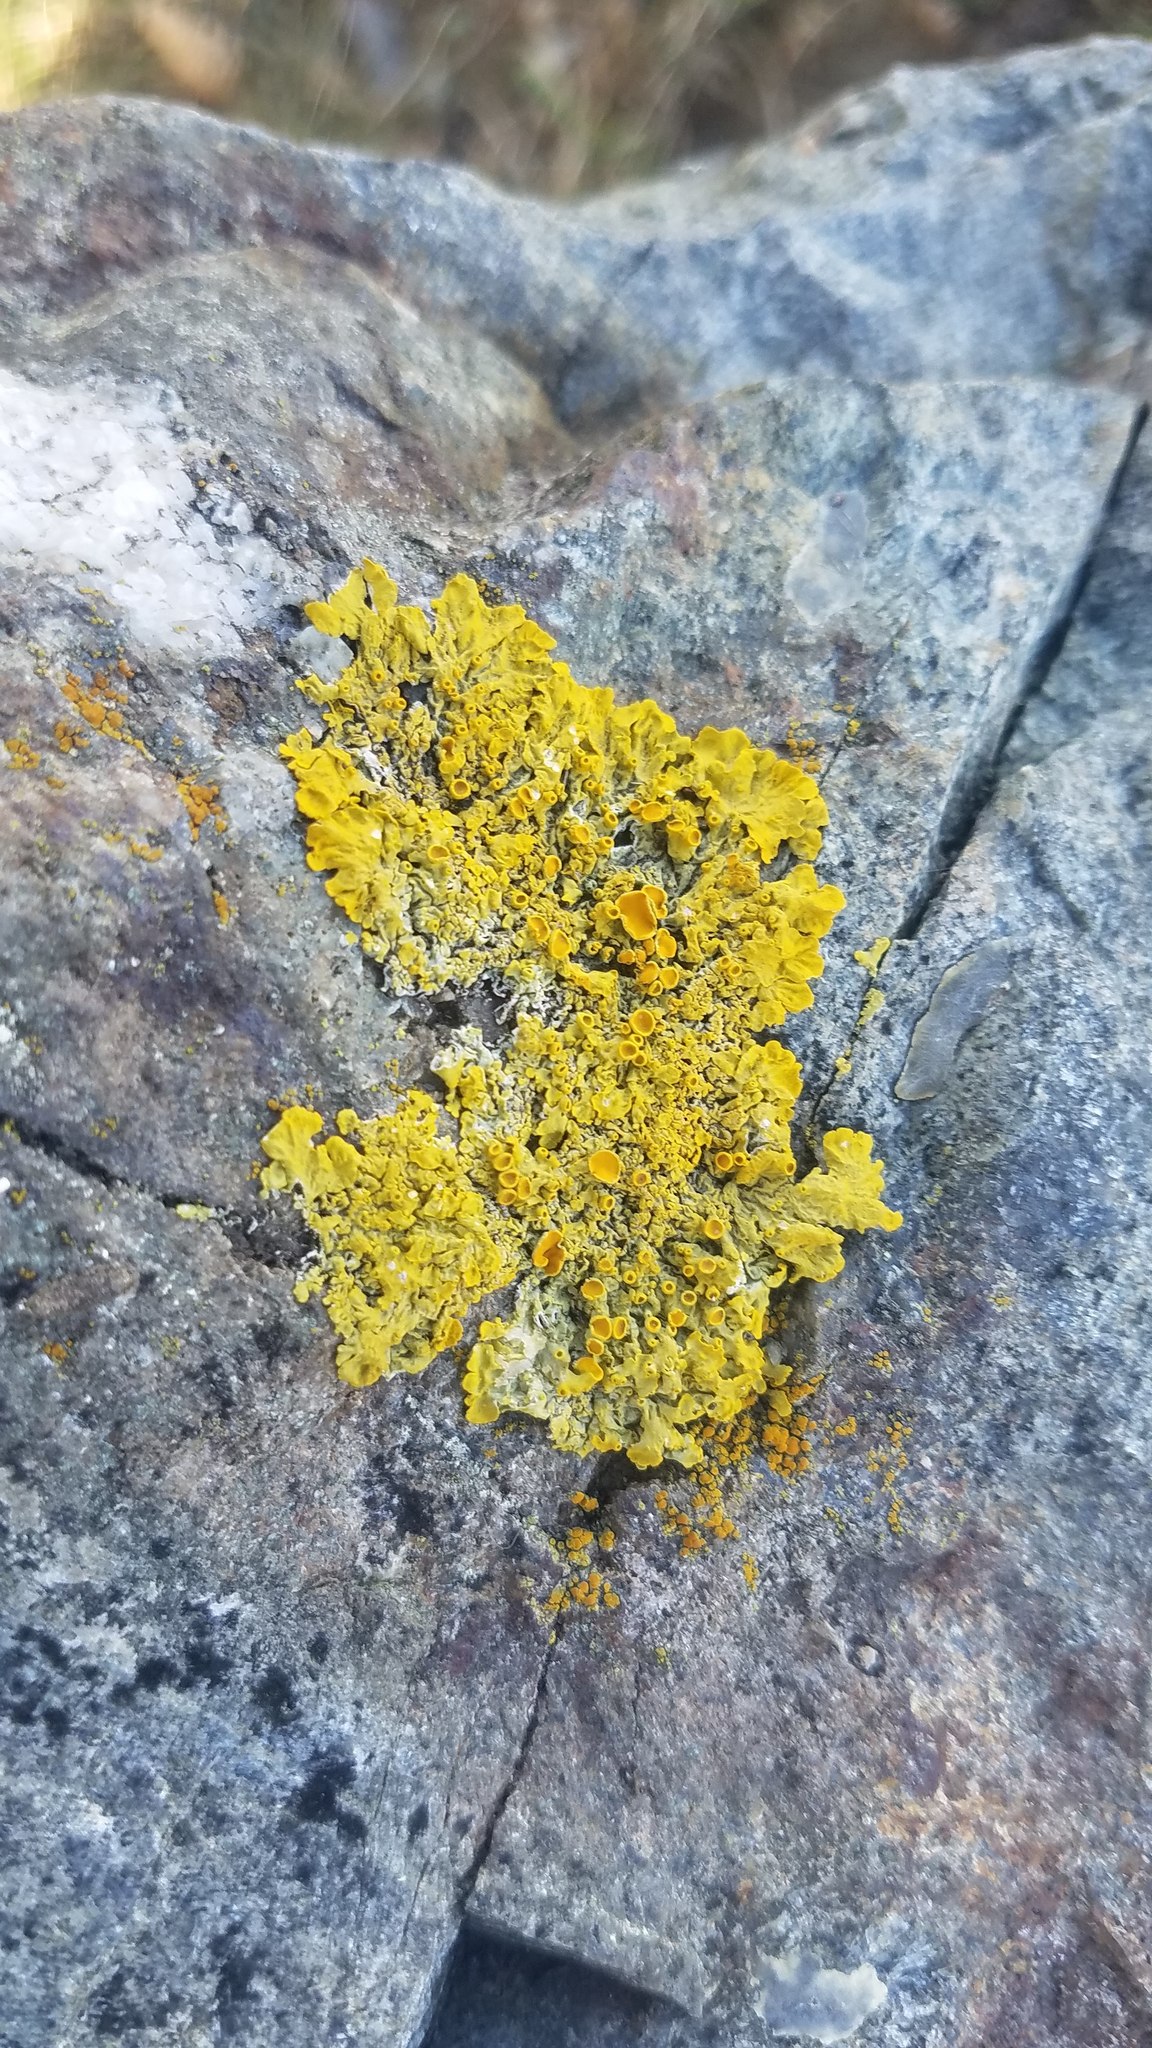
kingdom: Fungi
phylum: Ascomycota
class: Lecanoromycetes
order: Teloschistales
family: Teloschistaceae
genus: Xanthoria
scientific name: Xanthoria parietina
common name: Common orange lichen
